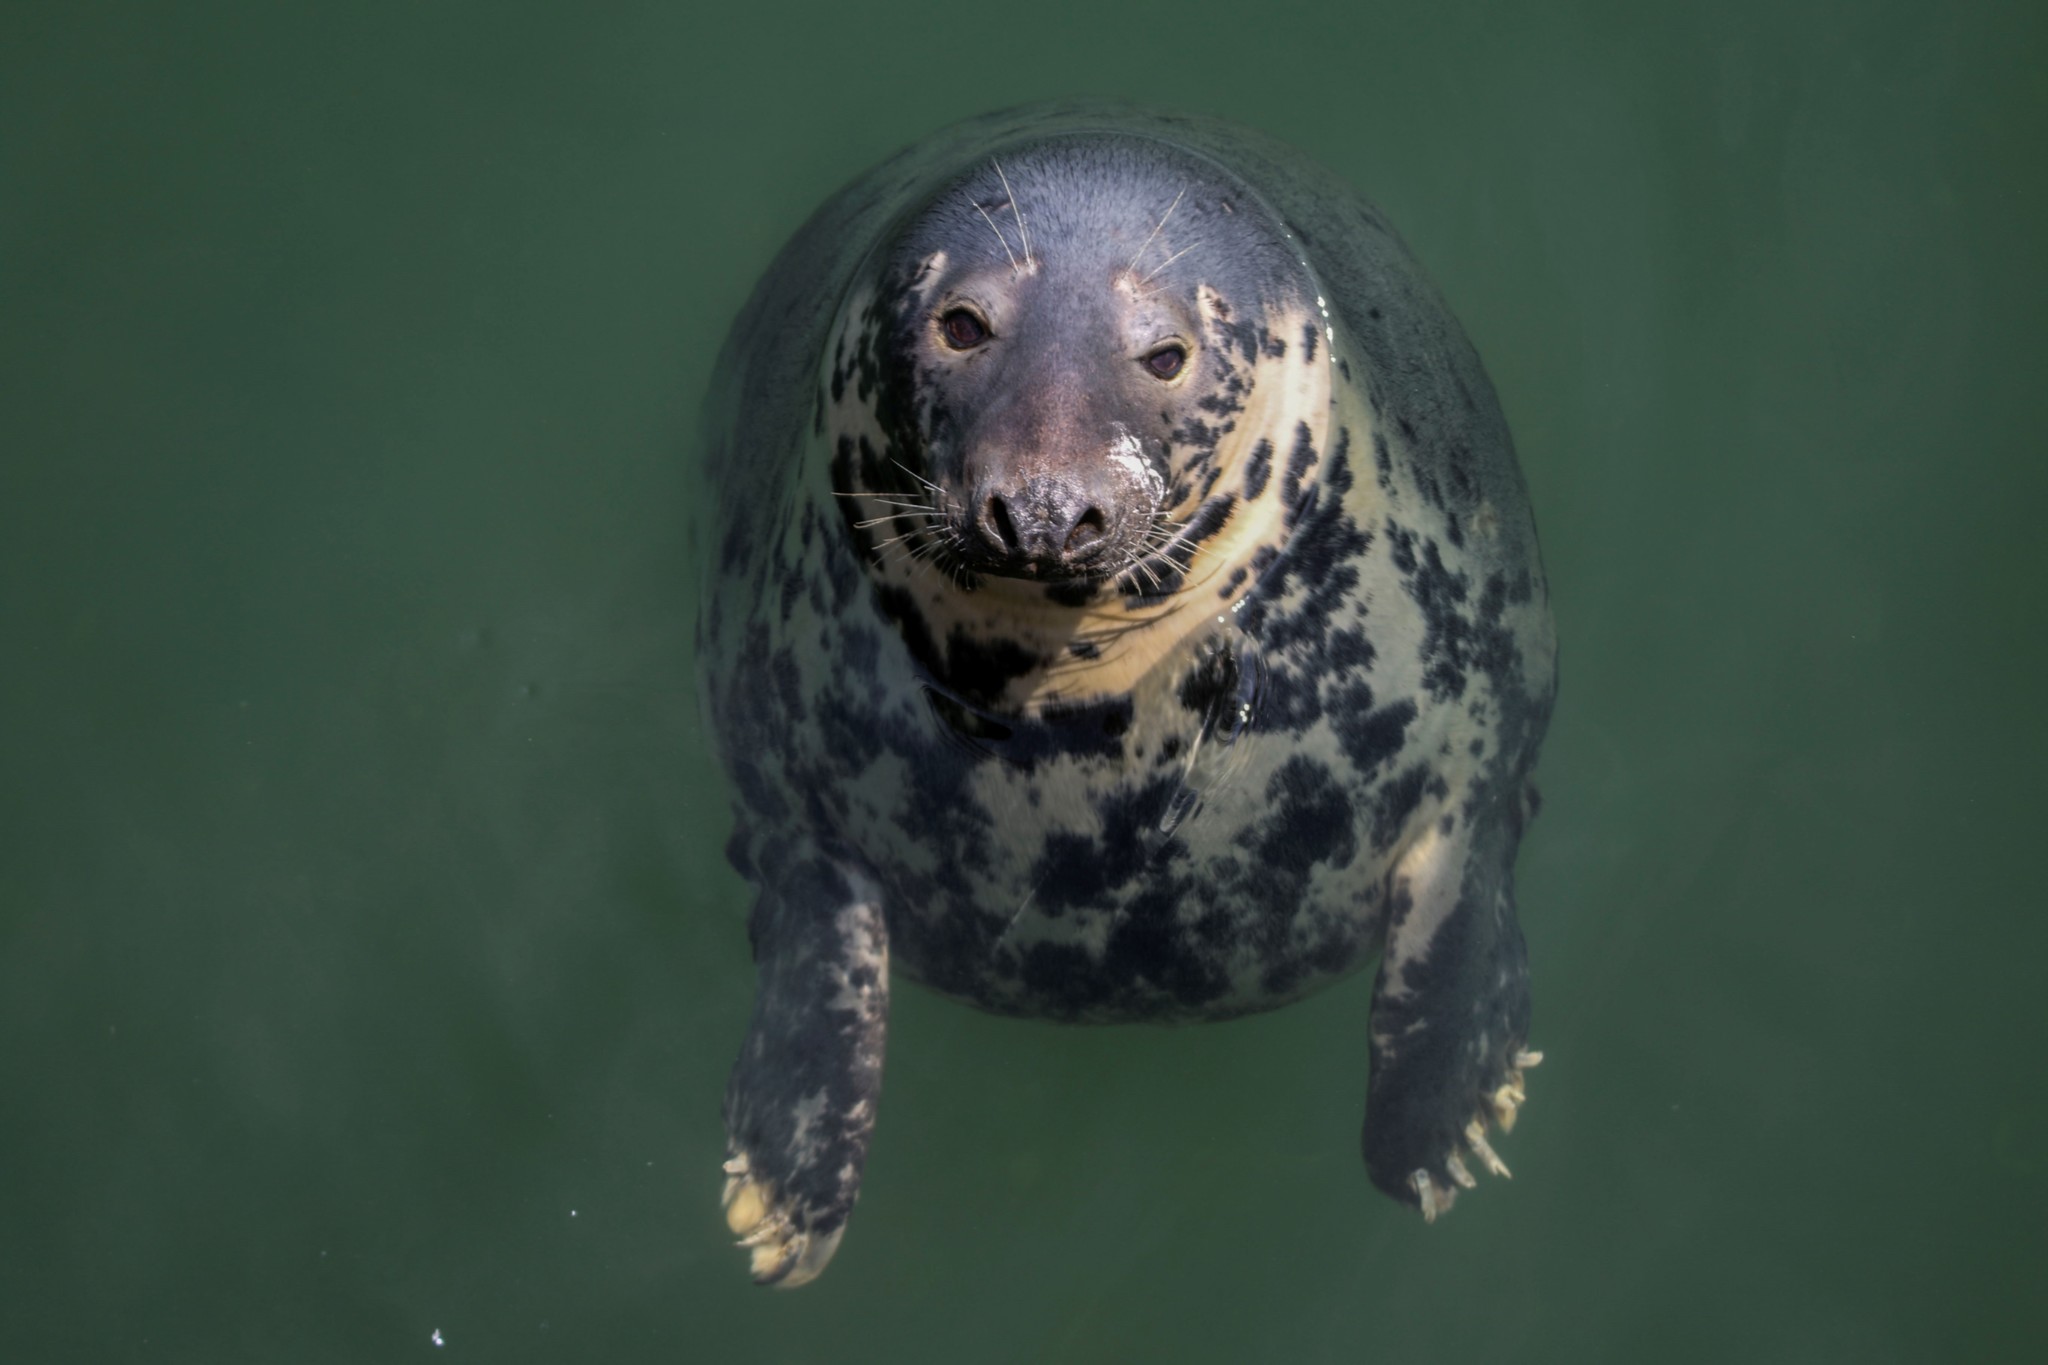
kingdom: Animalia
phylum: Chordata
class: Mammalia
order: Carnivora
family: Phocidae
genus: Halichoerus
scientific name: Halichoerus grypus
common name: Grey seal
